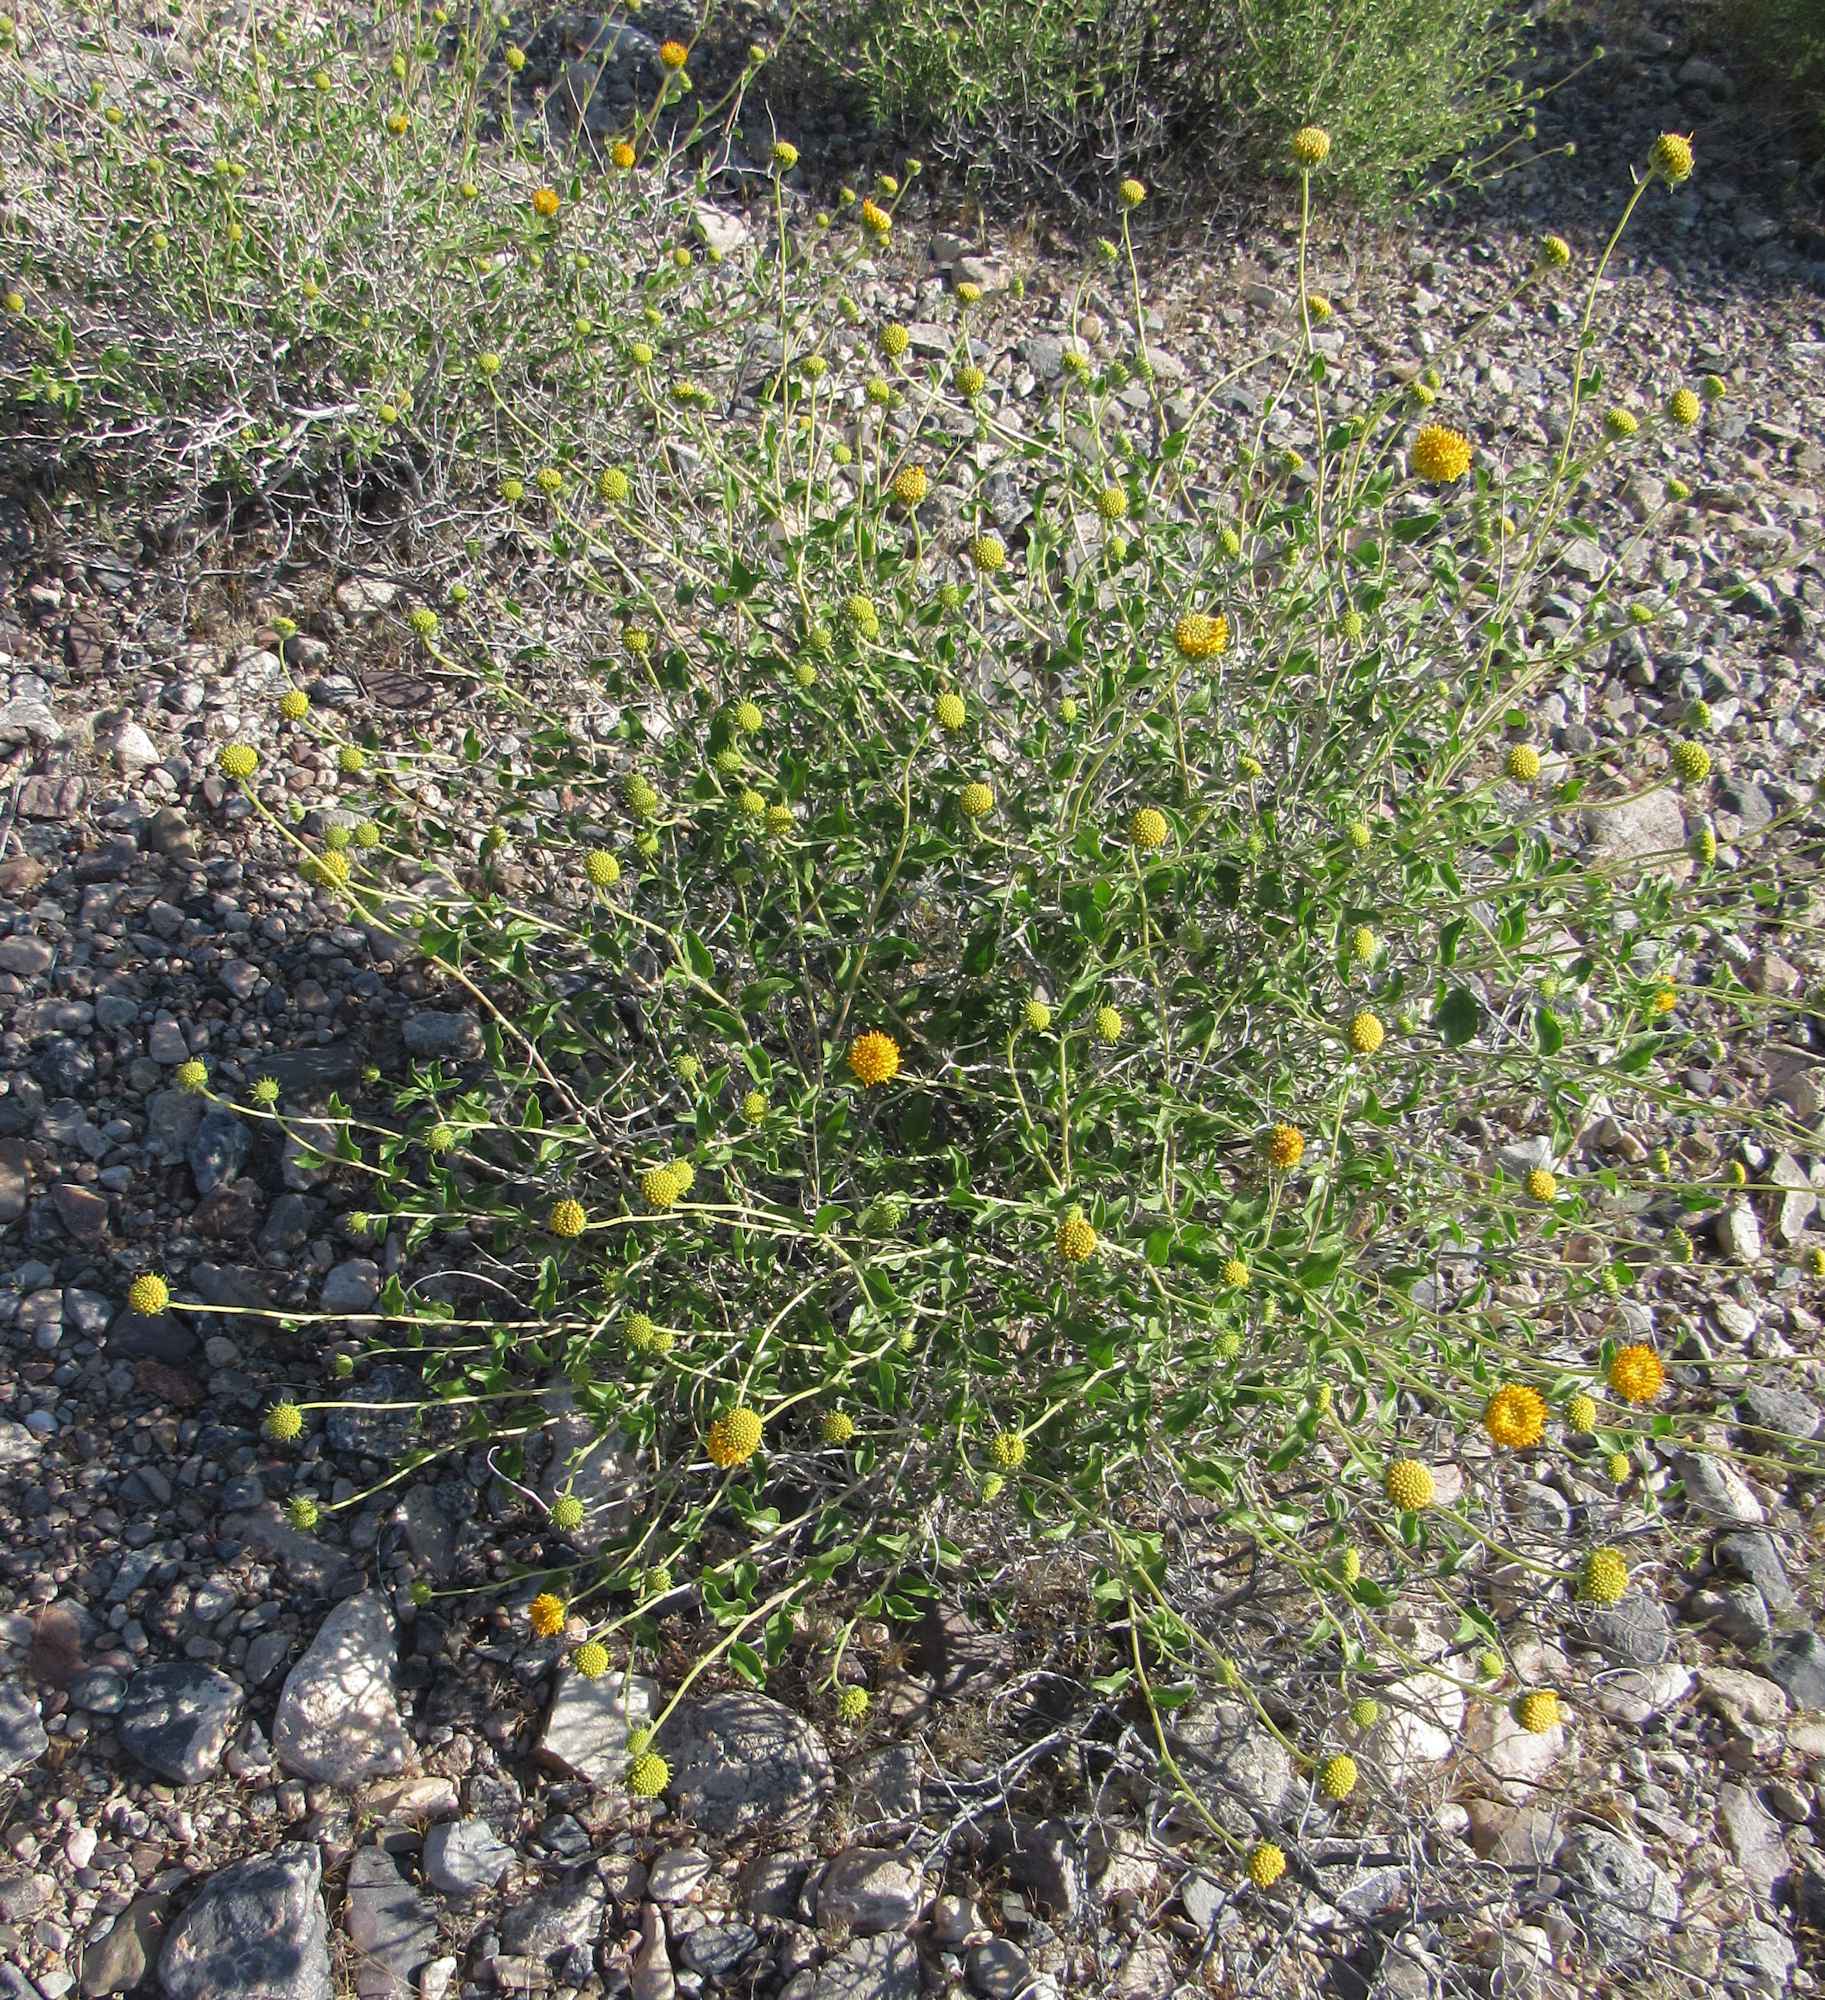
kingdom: Plantae
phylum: Tracheophyta
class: Magnoliopsida
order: Asterales
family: Asteraceae
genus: Encelia
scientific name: Encelia frutescens
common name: Bush encelia
